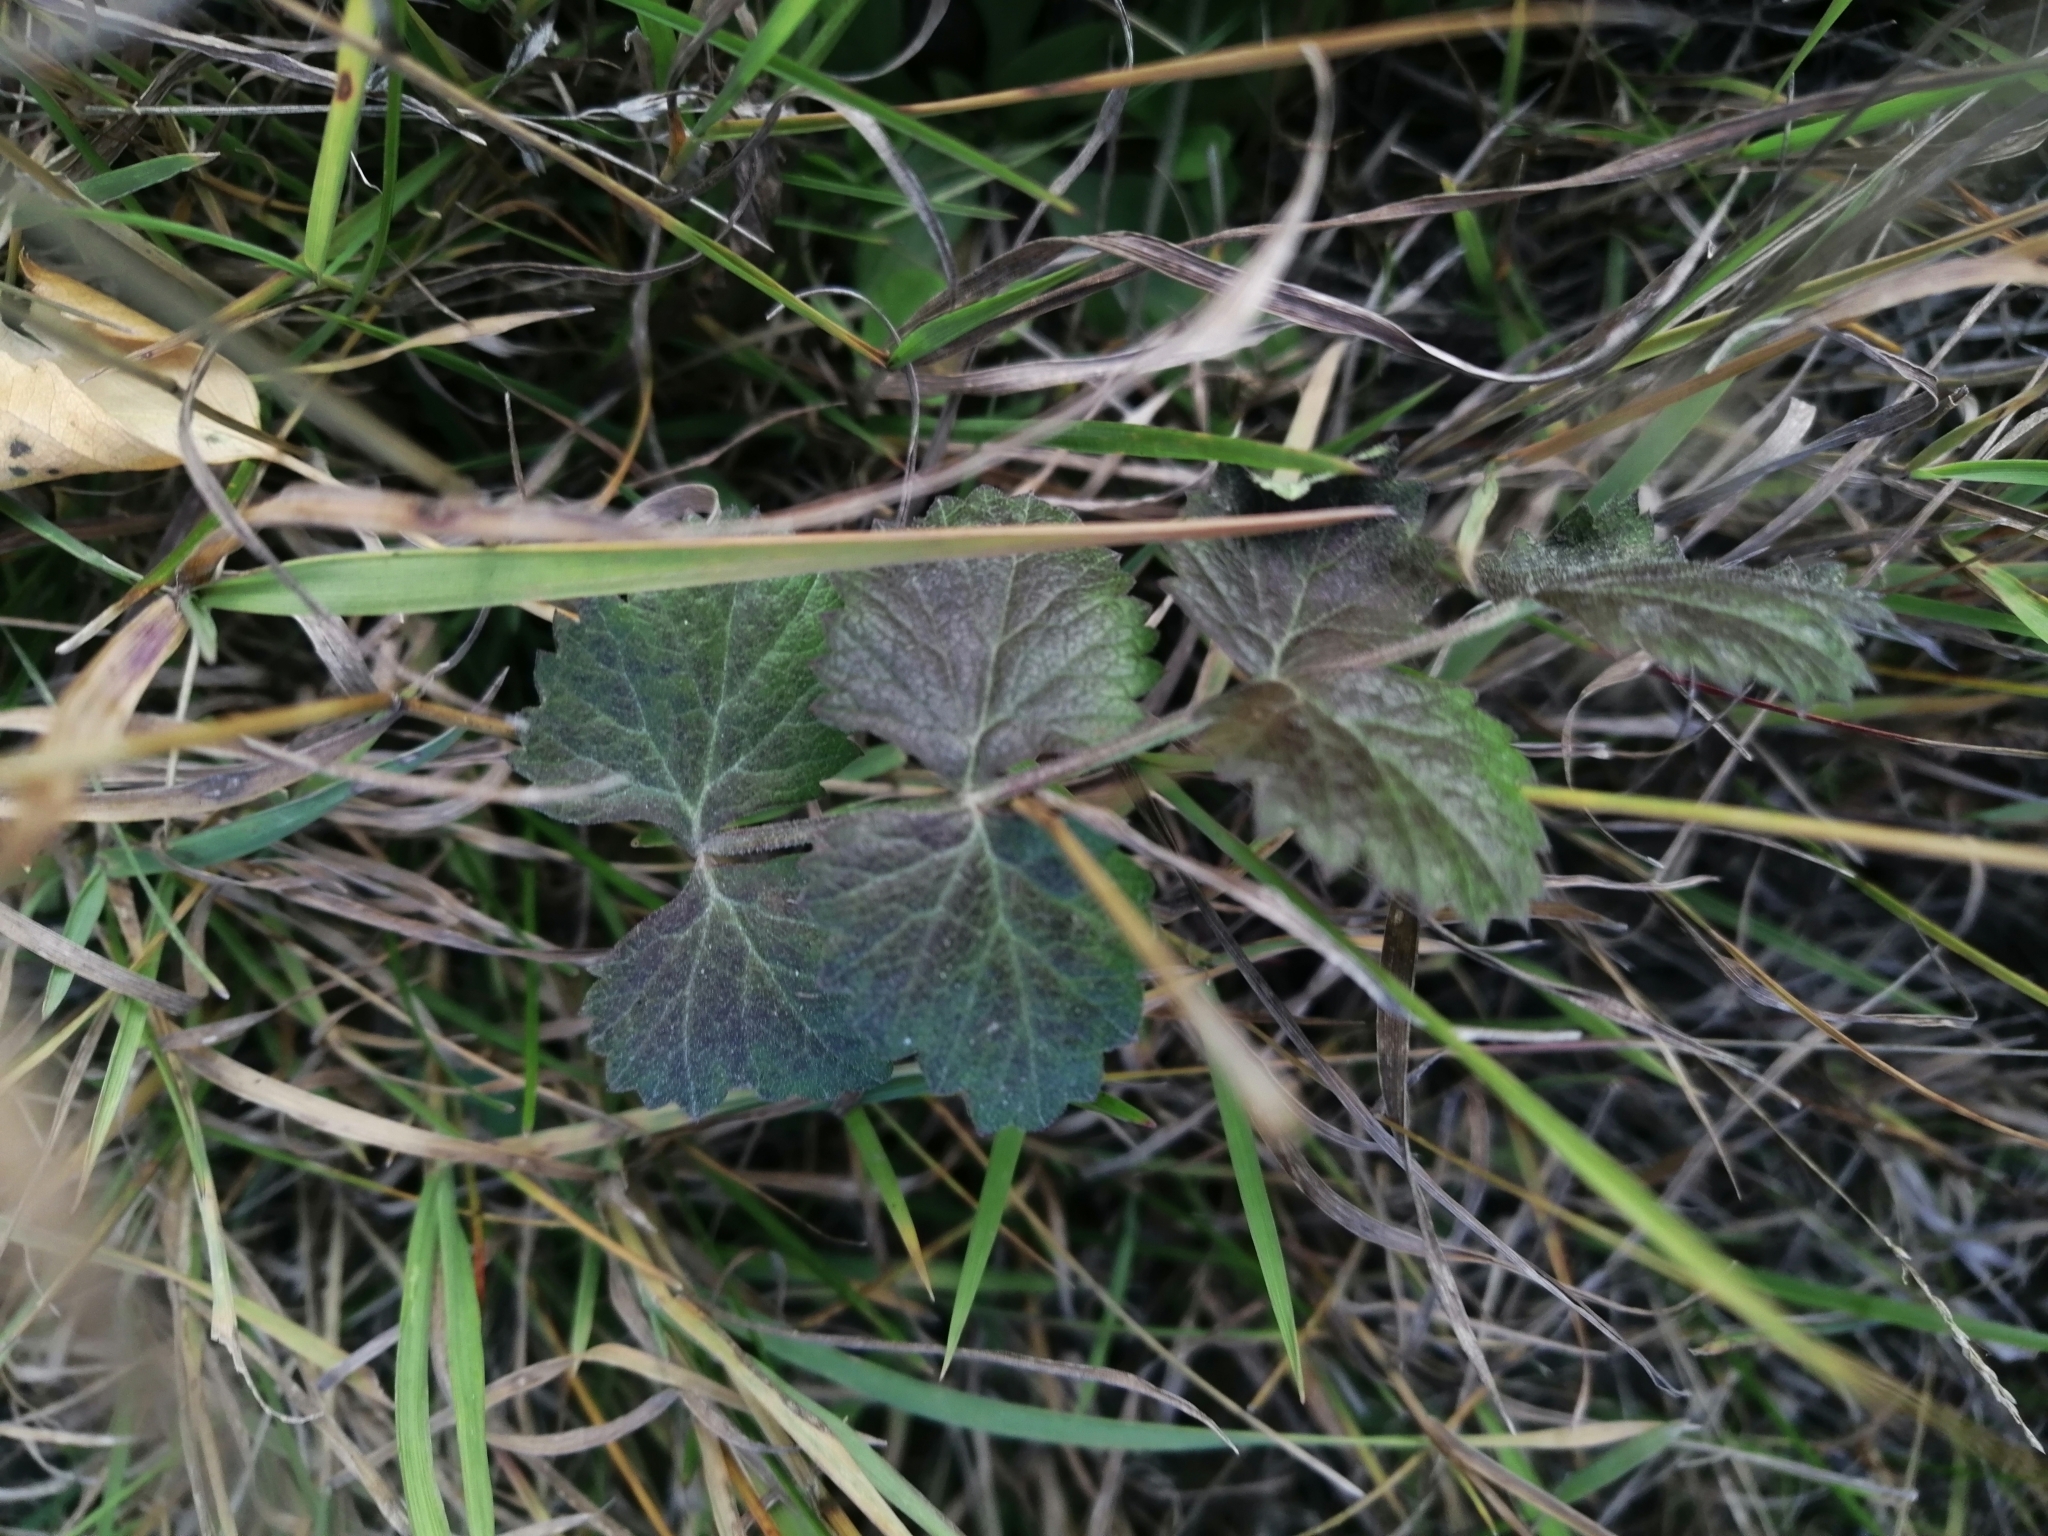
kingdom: Plantae
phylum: Tracheophyta
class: Magnoliopsida
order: Apiales
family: Apiaceae
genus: Pimpinella
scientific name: Pimpinella saxifraga
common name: Burnet-saxifrage
